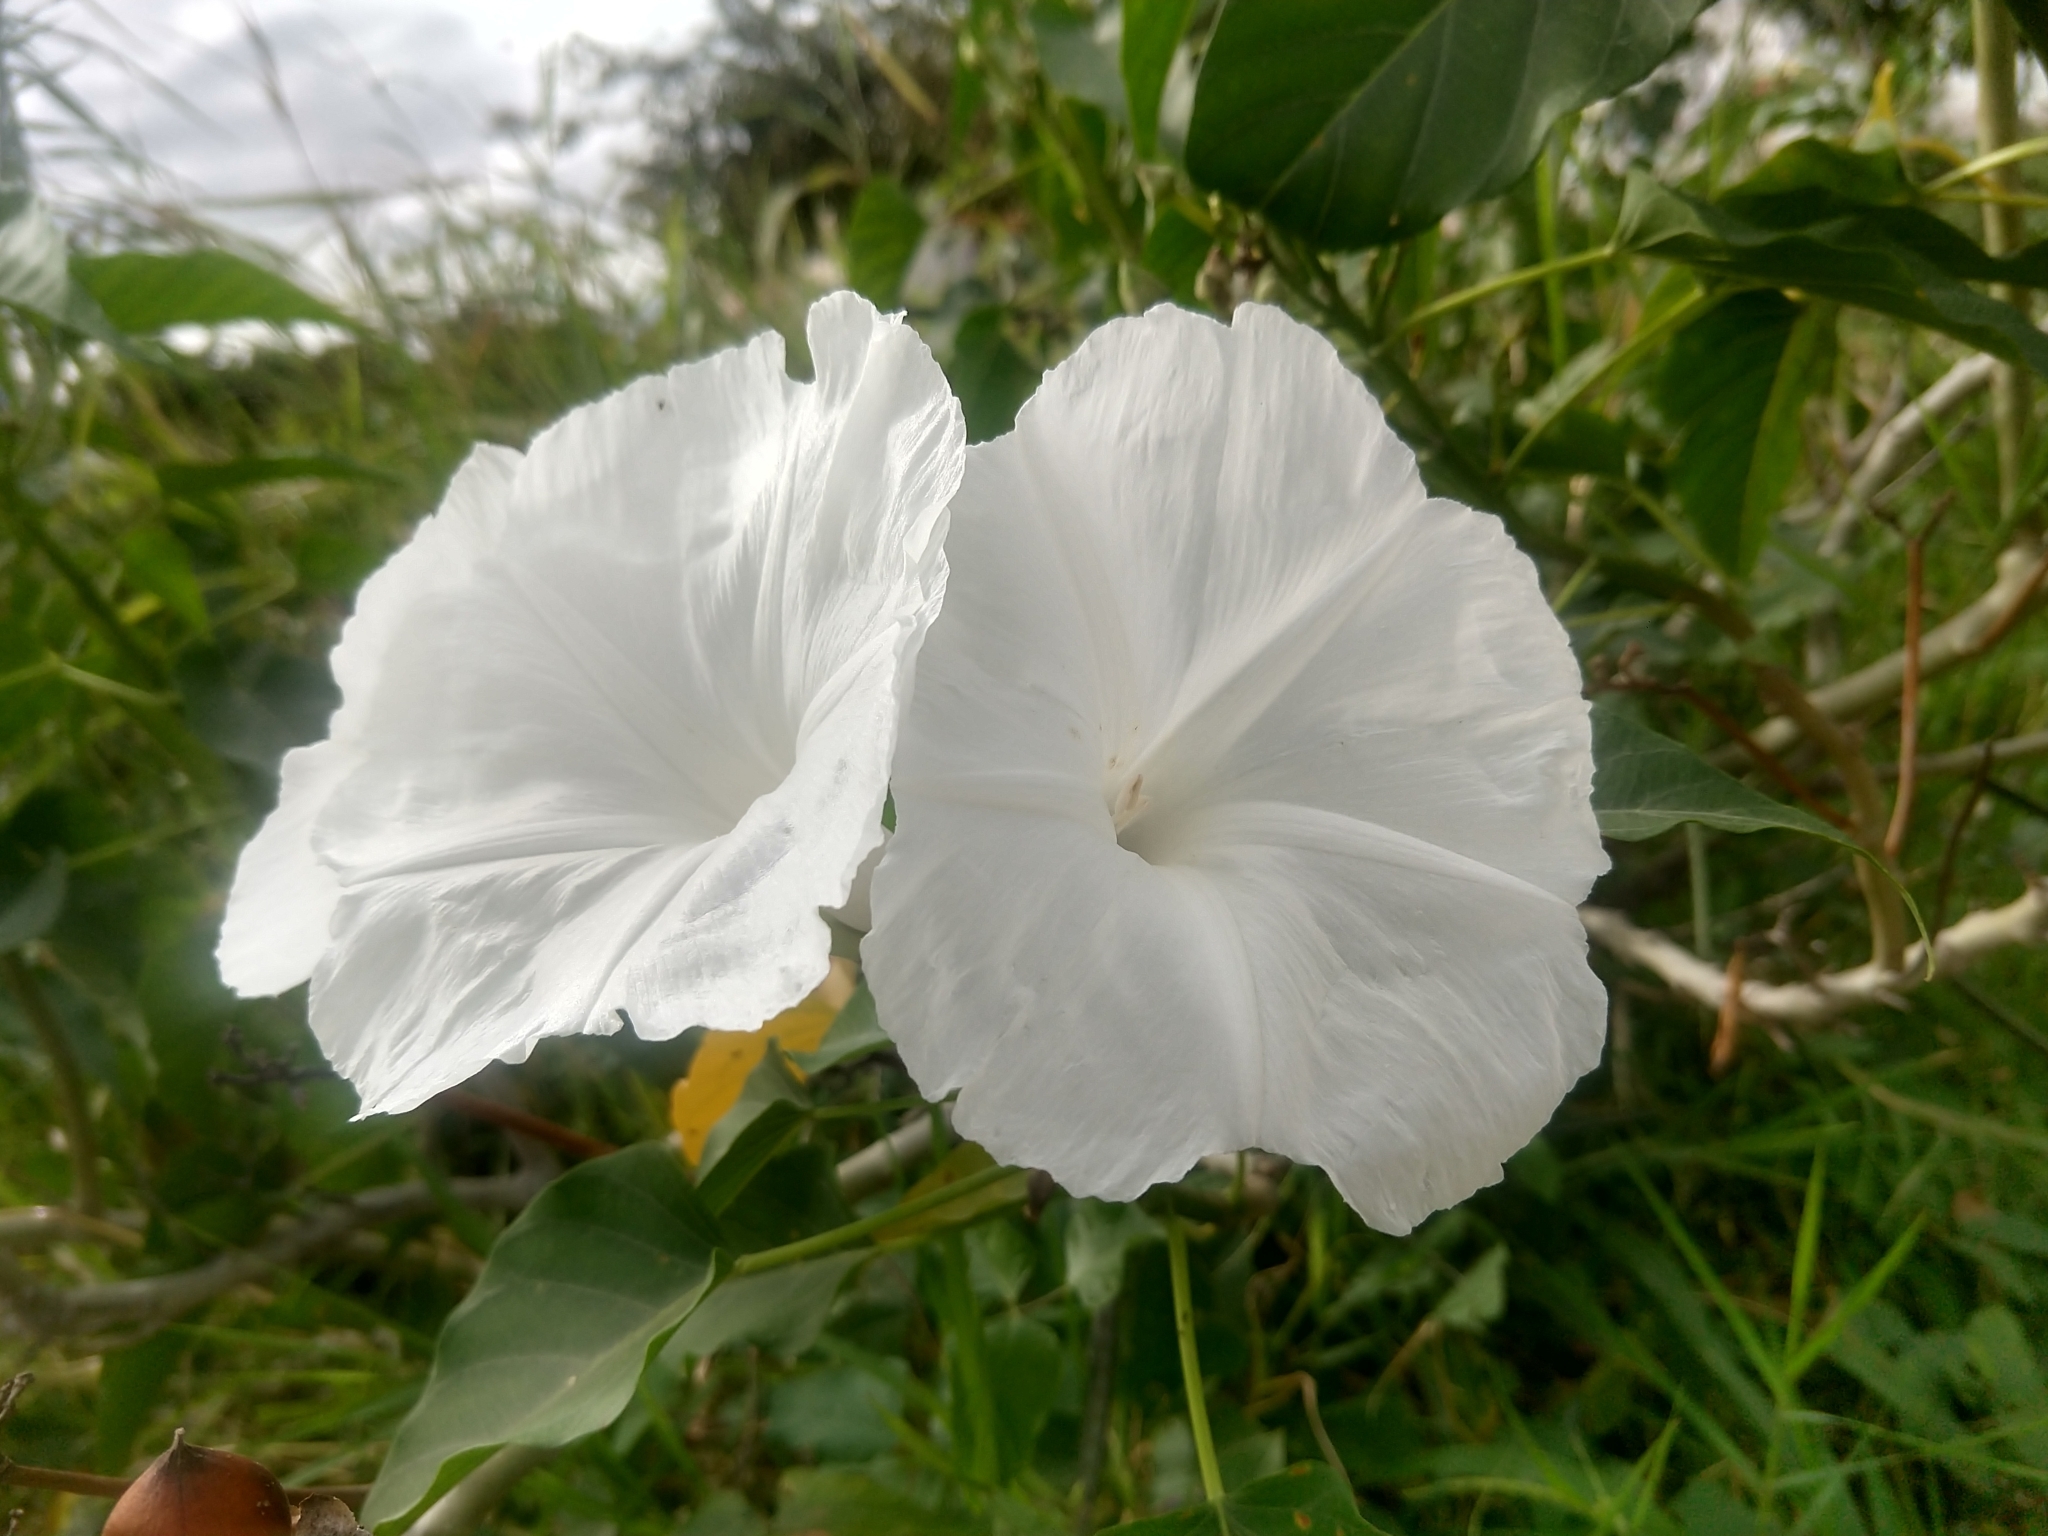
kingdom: Plantae
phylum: Tracheophyta
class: Magnoliopsida
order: Solanales
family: Convolvulaceae
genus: Ipomoea
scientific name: Ipomoea carnea
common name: Morning-glory
